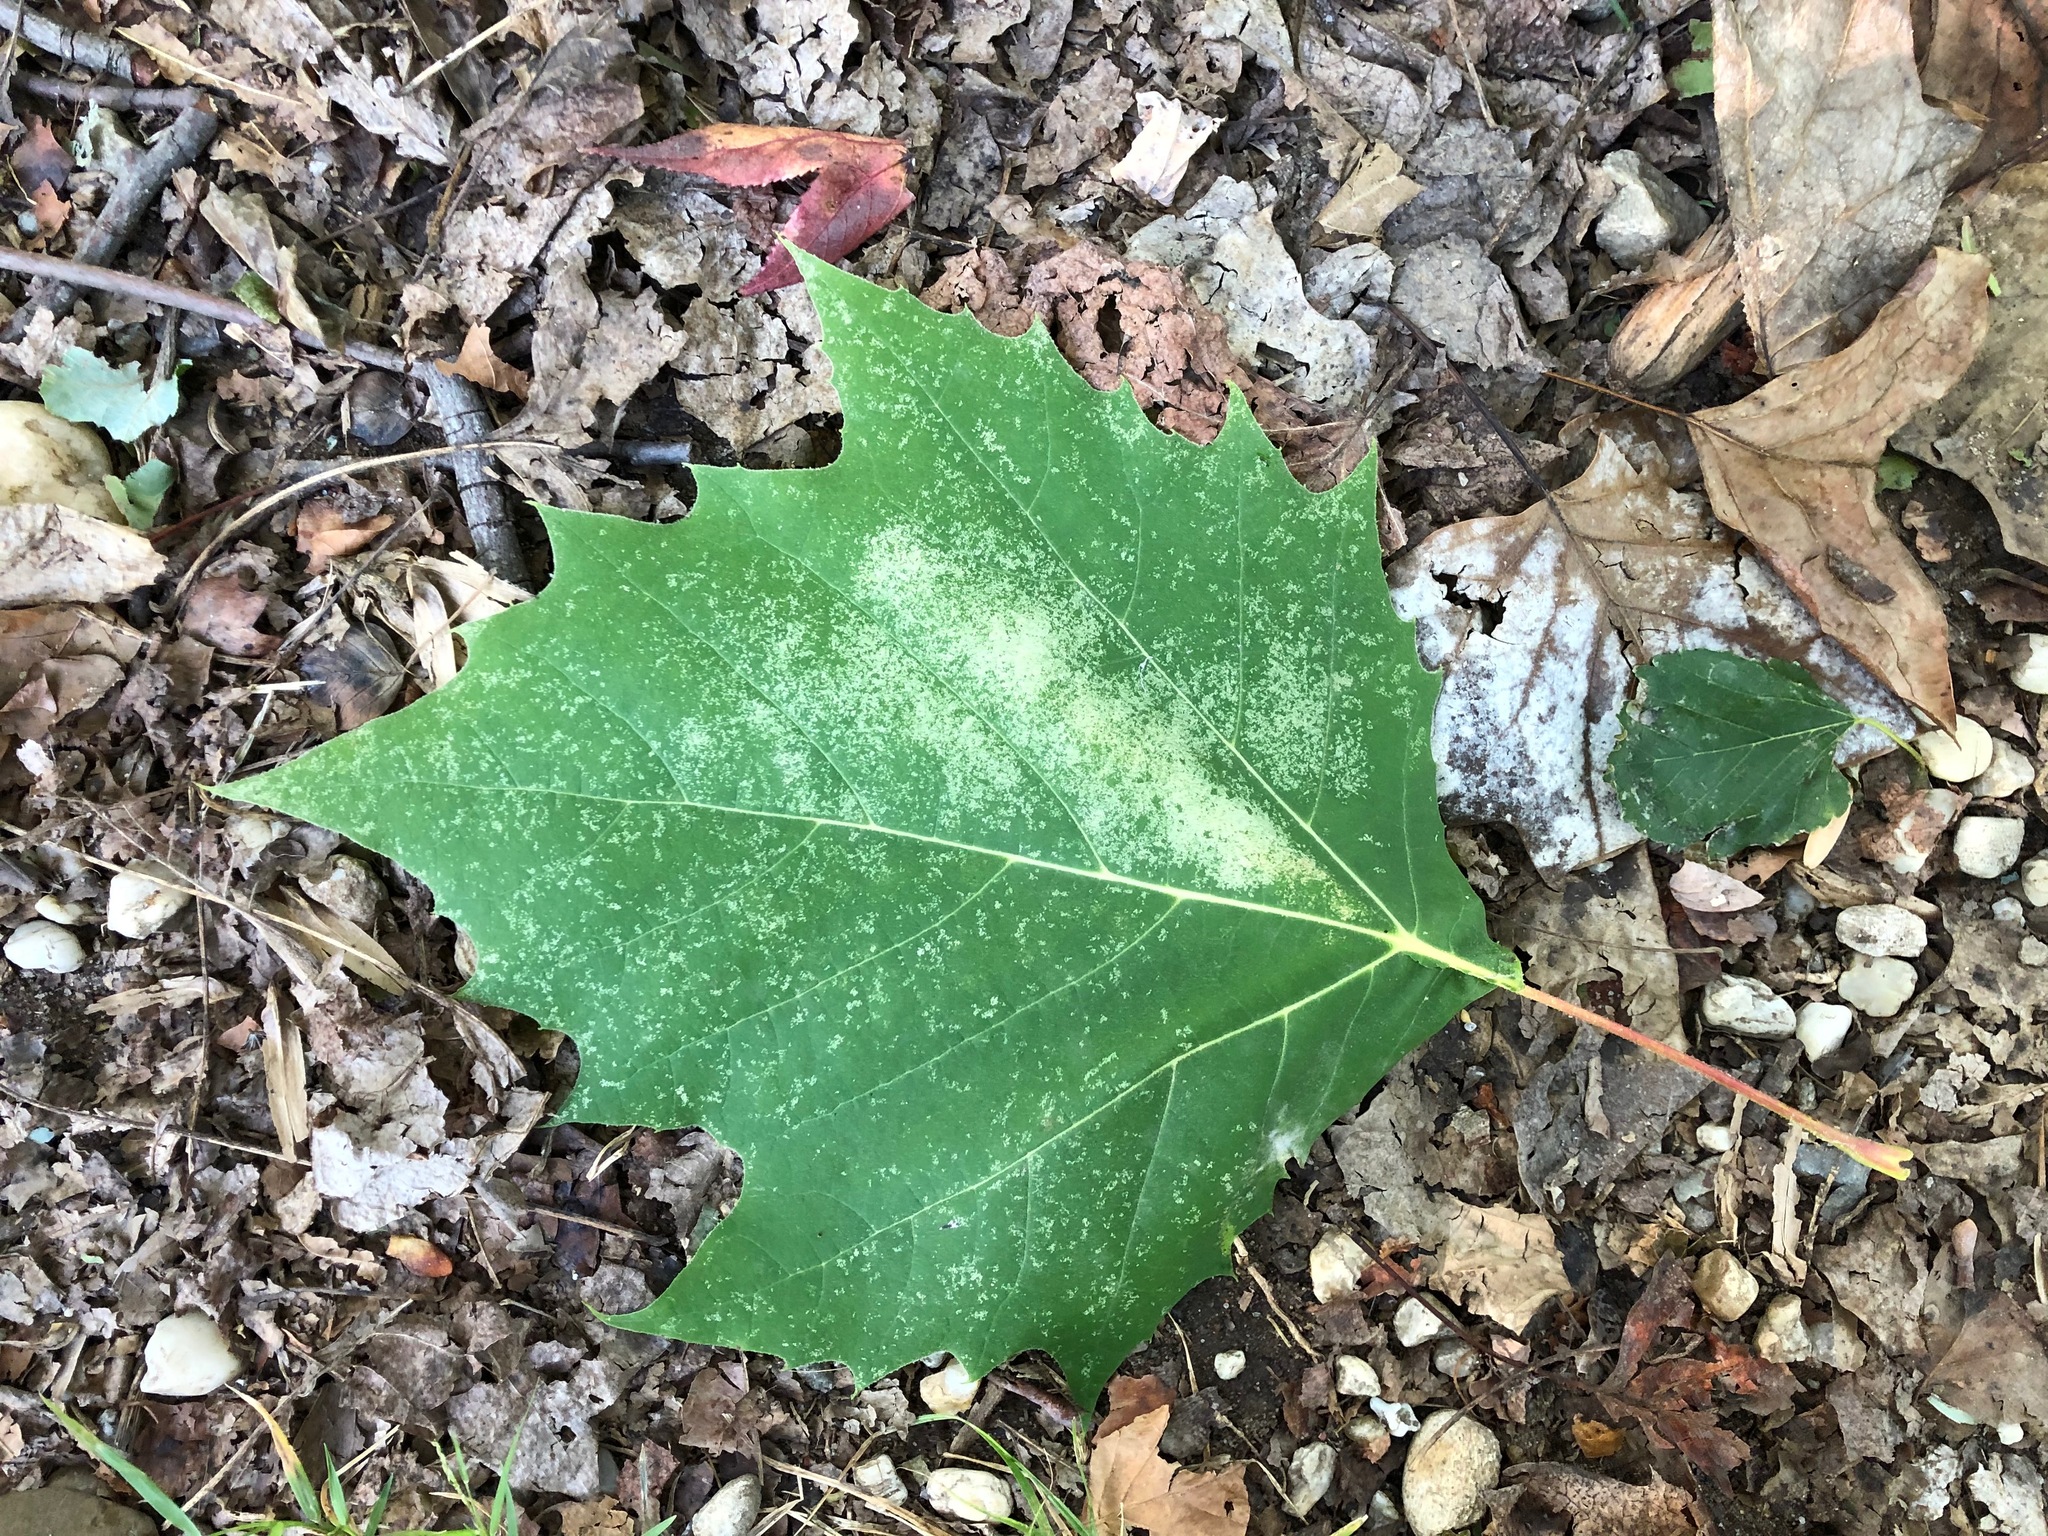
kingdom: Plantae
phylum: Tracheophyta
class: Magnoliopsida
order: Proteales
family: Platanaceae
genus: Platanus
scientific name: Platanus occidentalis
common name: American sycamore
